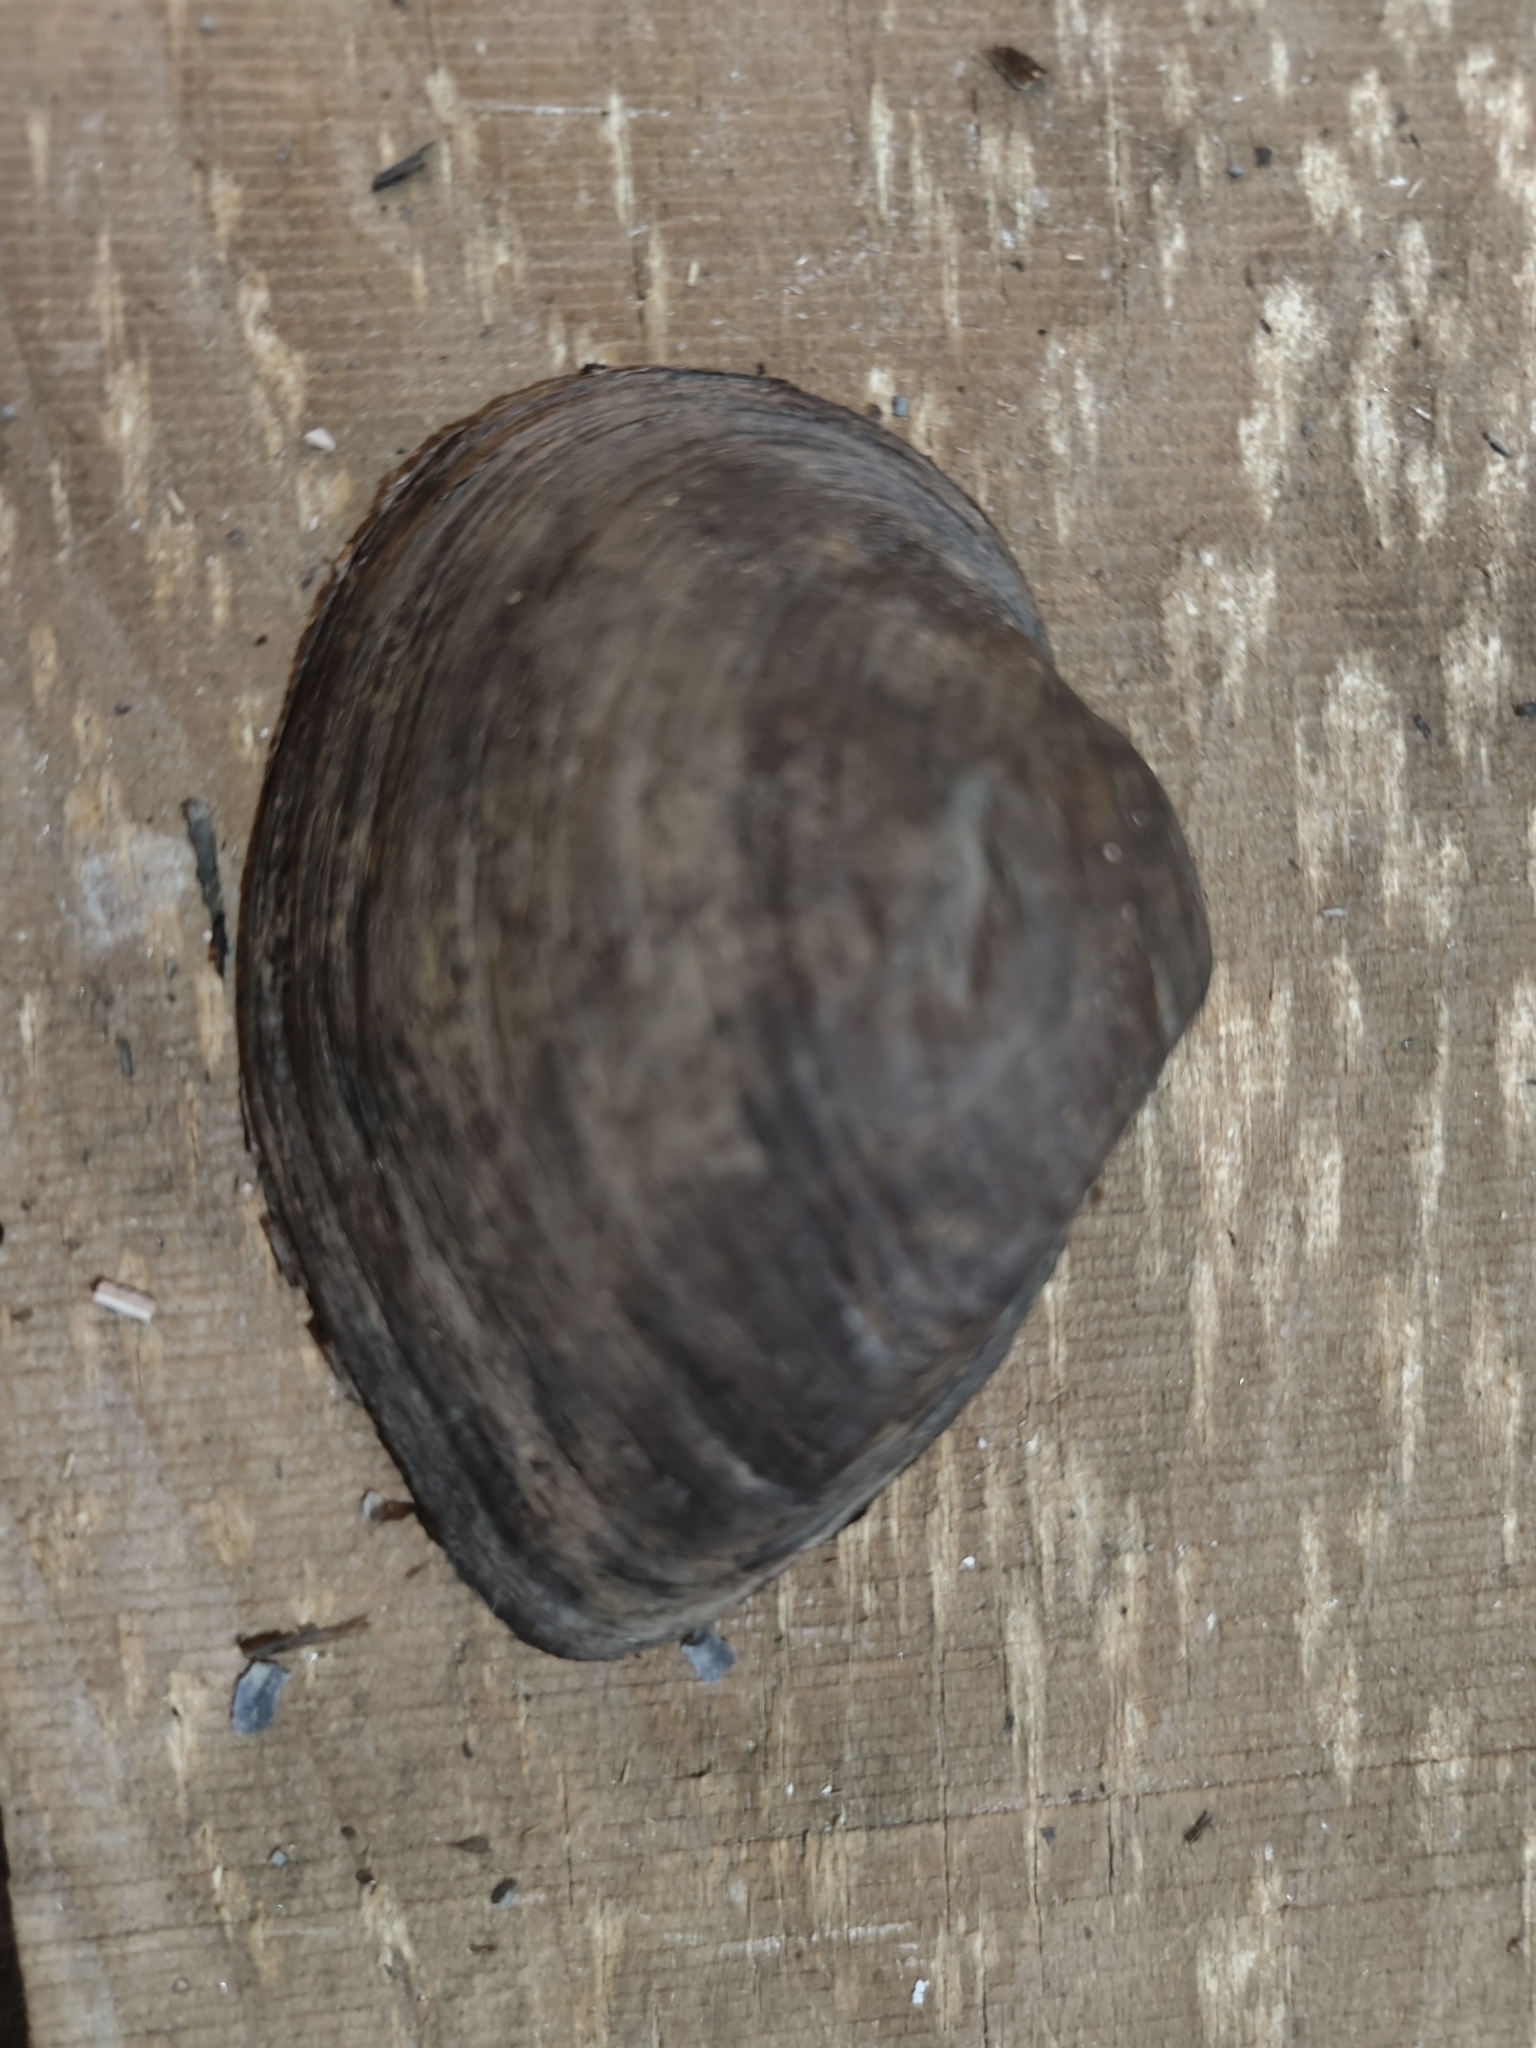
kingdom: Animalia
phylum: Mollusca
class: Bivalvia
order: Unionida
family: Unionidae
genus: Truncilla
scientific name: Truncilla truncata
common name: Deertoe
